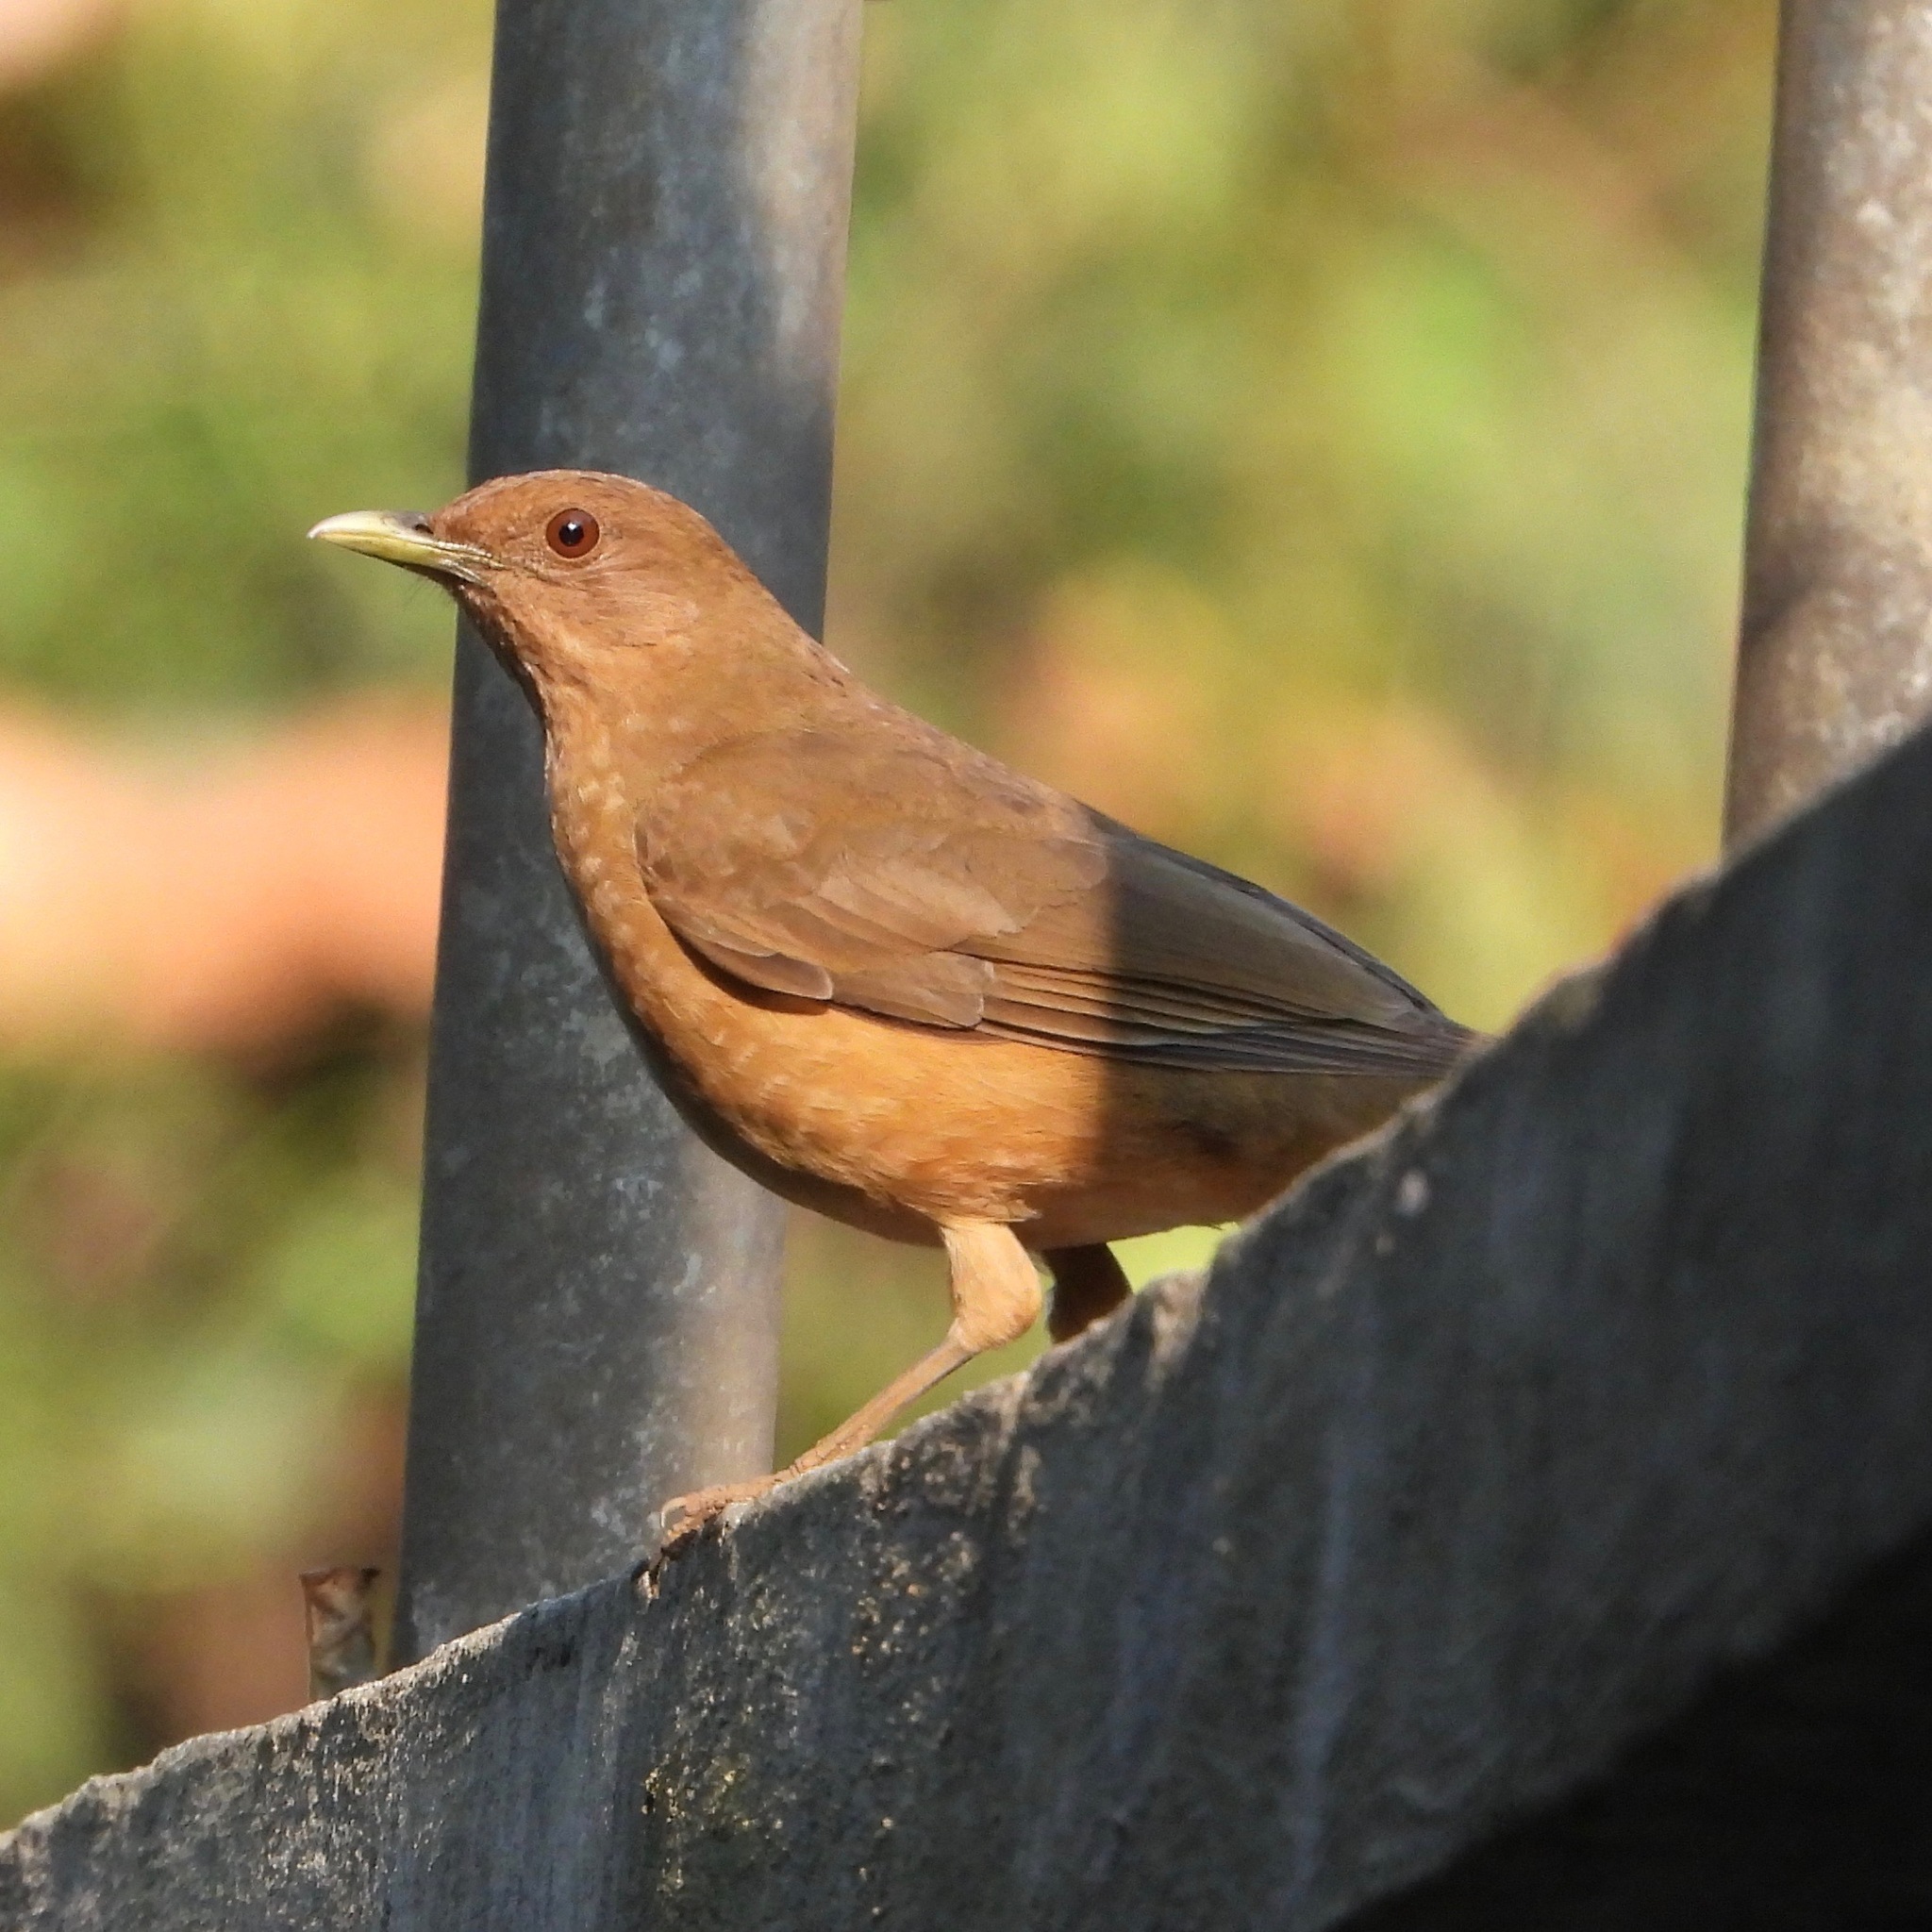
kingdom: Animalia
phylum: Chordata
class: Aves
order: Passeriformes
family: Turdidae
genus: Turdus
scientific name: Turdus grayi
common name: Clay-colored thrush
